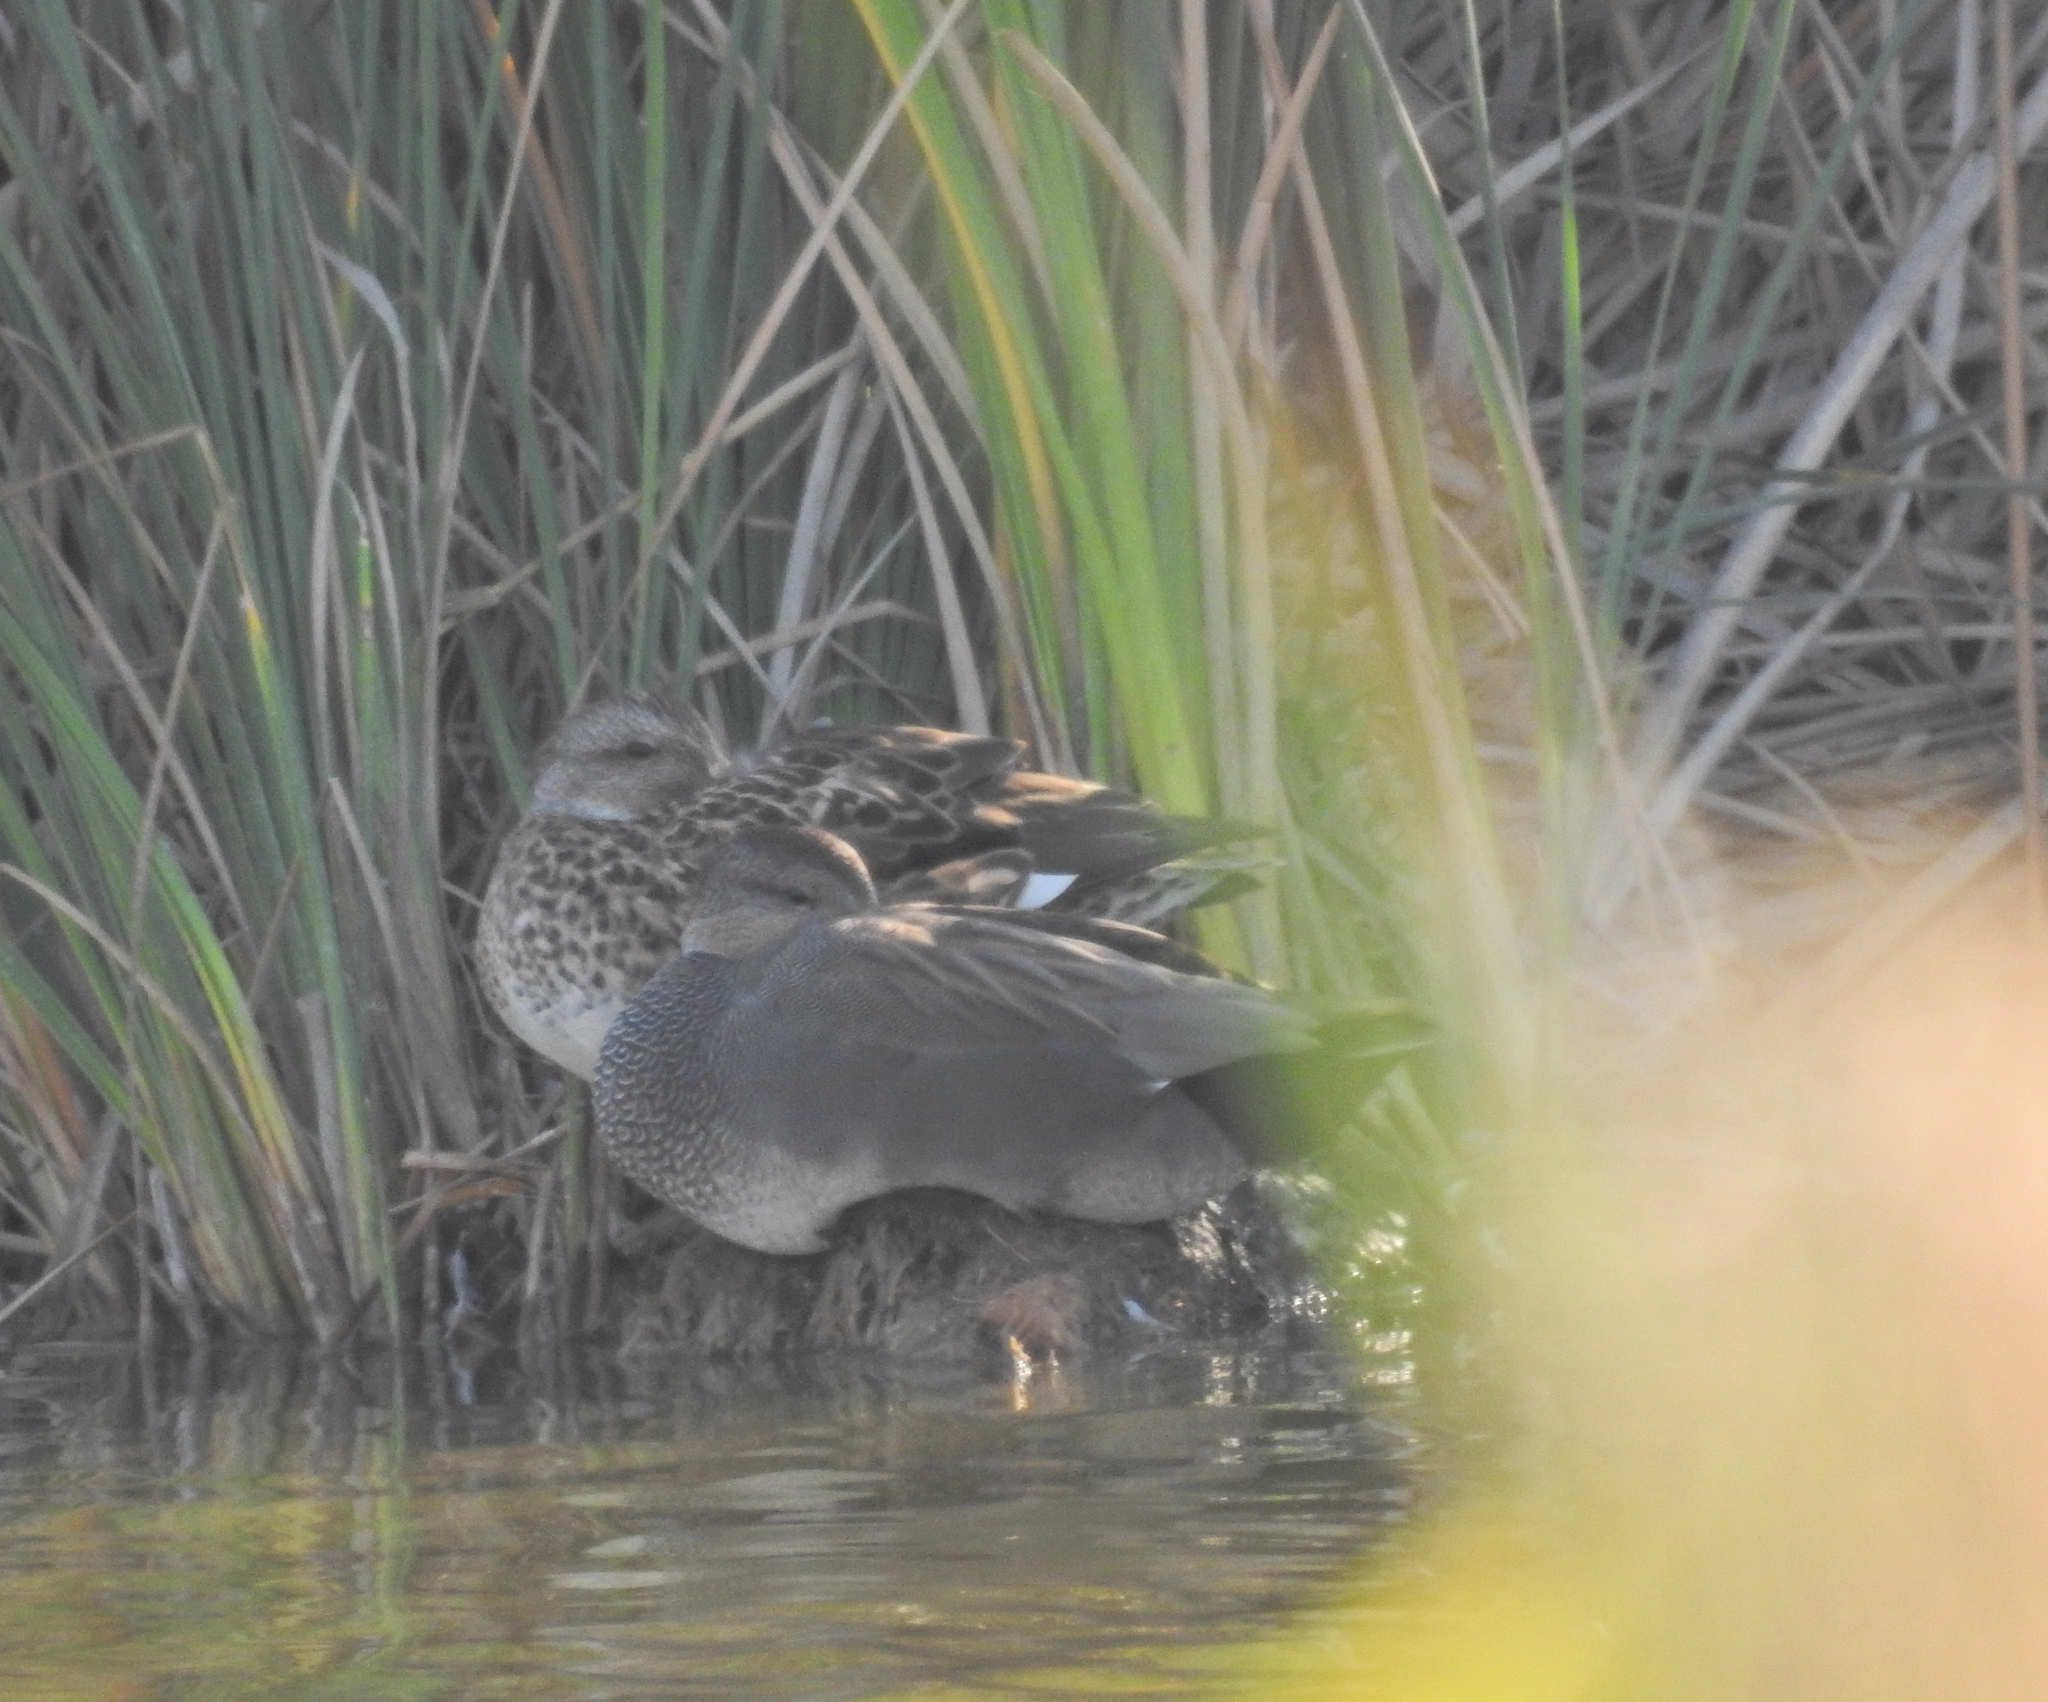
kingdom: Animalia
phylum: Chordata
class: Aves
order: Anseriformes
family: Anatidae
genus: Mareca
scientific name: Mareca strepera
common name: Gadwall
